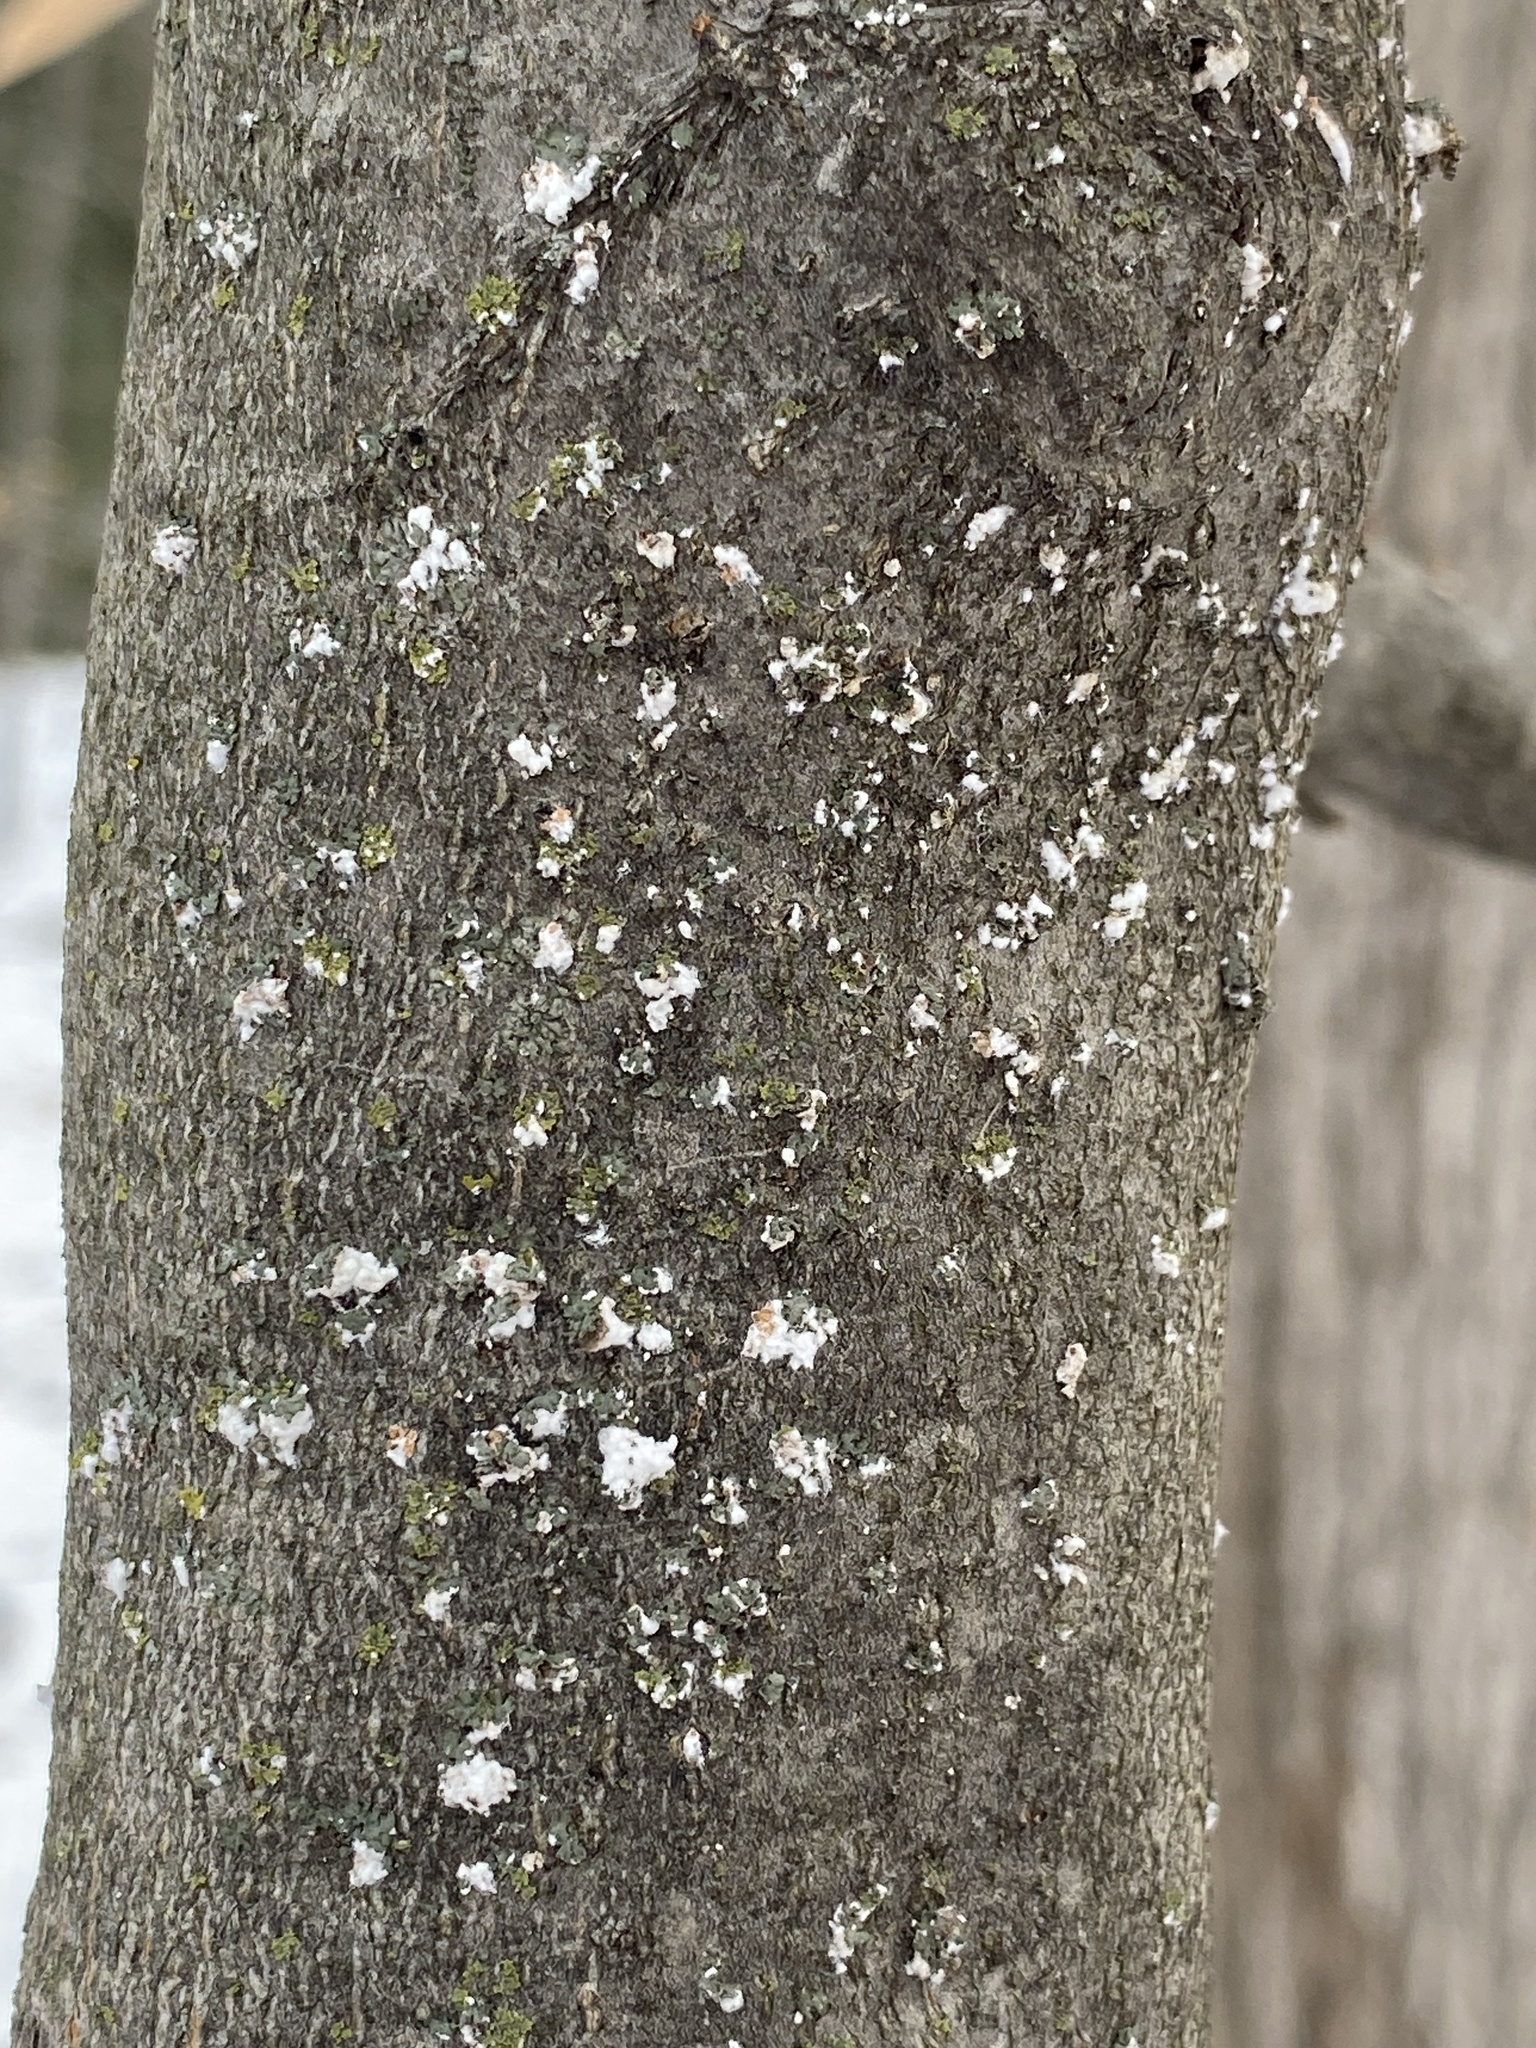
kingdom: Animalia
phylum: Arthropoda
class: Insecta
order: Hemiptera
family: Eriococcidae
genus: Cryptococcus
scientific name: Cryptococcus fagisuga
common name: Beech scale
